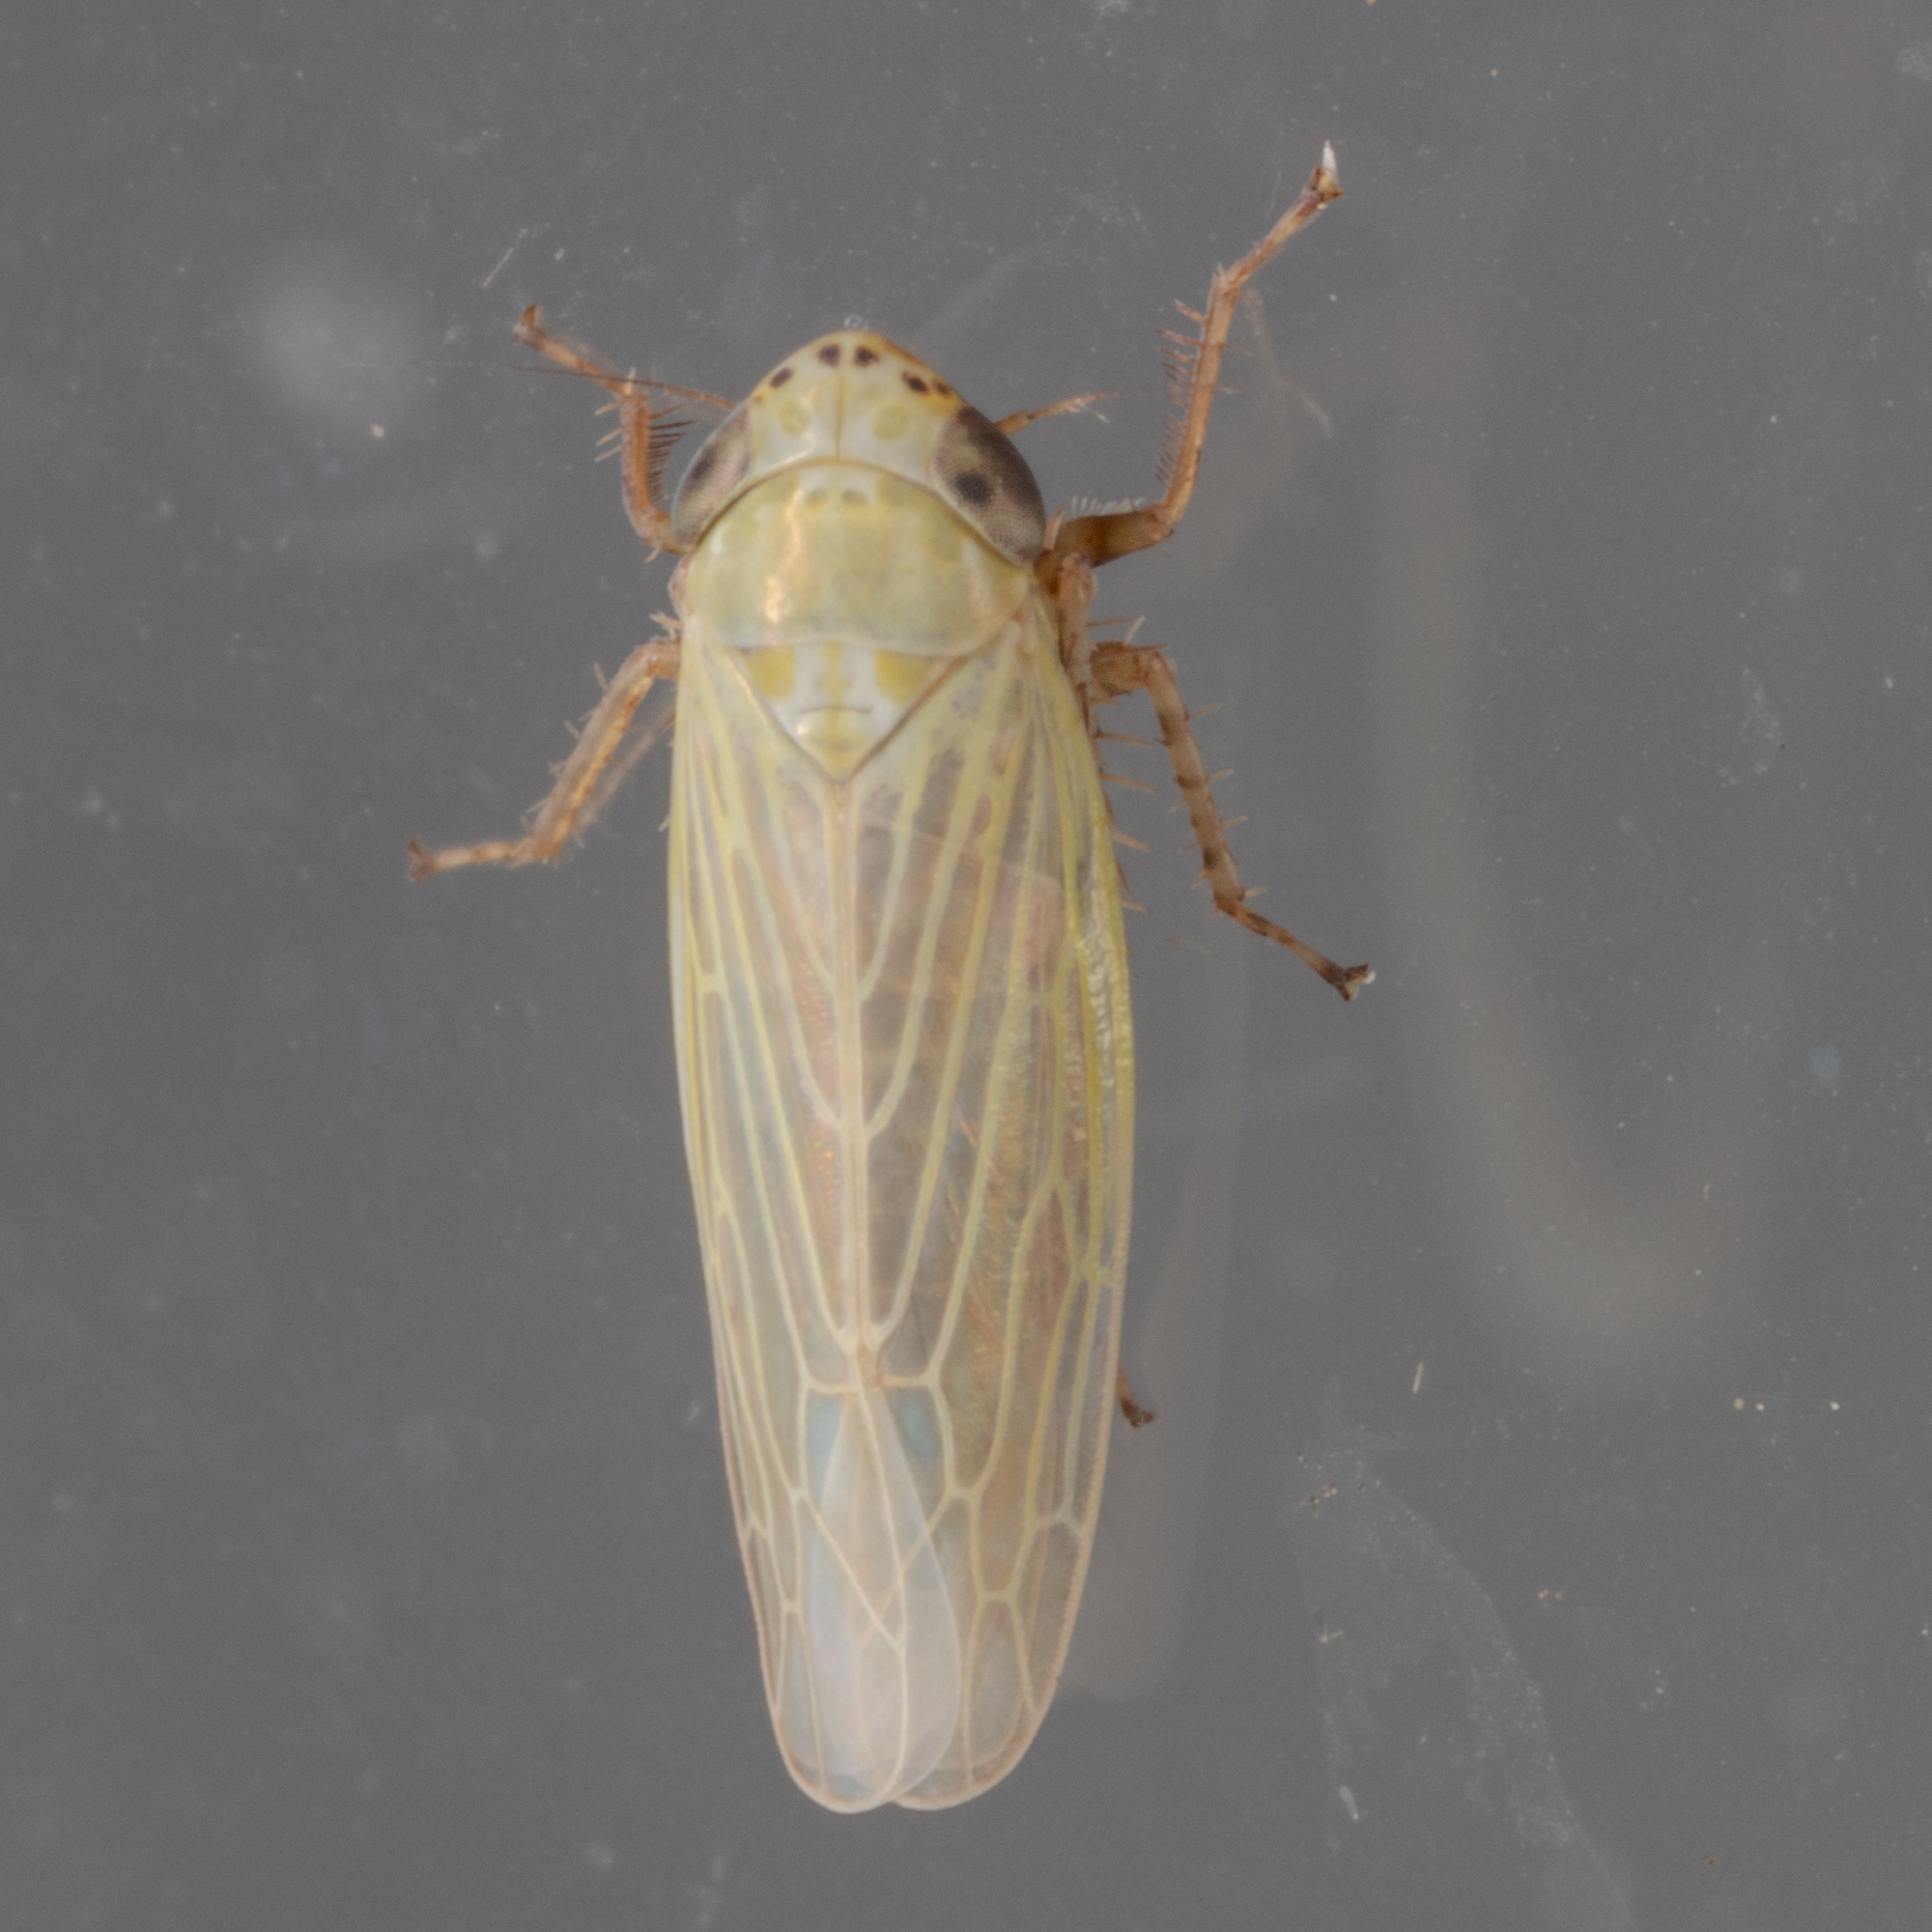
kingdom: Animalia
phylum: Arthropoda
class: Insecta
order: Hemiptera
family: Cicadellidae
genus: Graminella
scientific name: Graminella nigrifrons
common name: Blackfaced leafhopper
